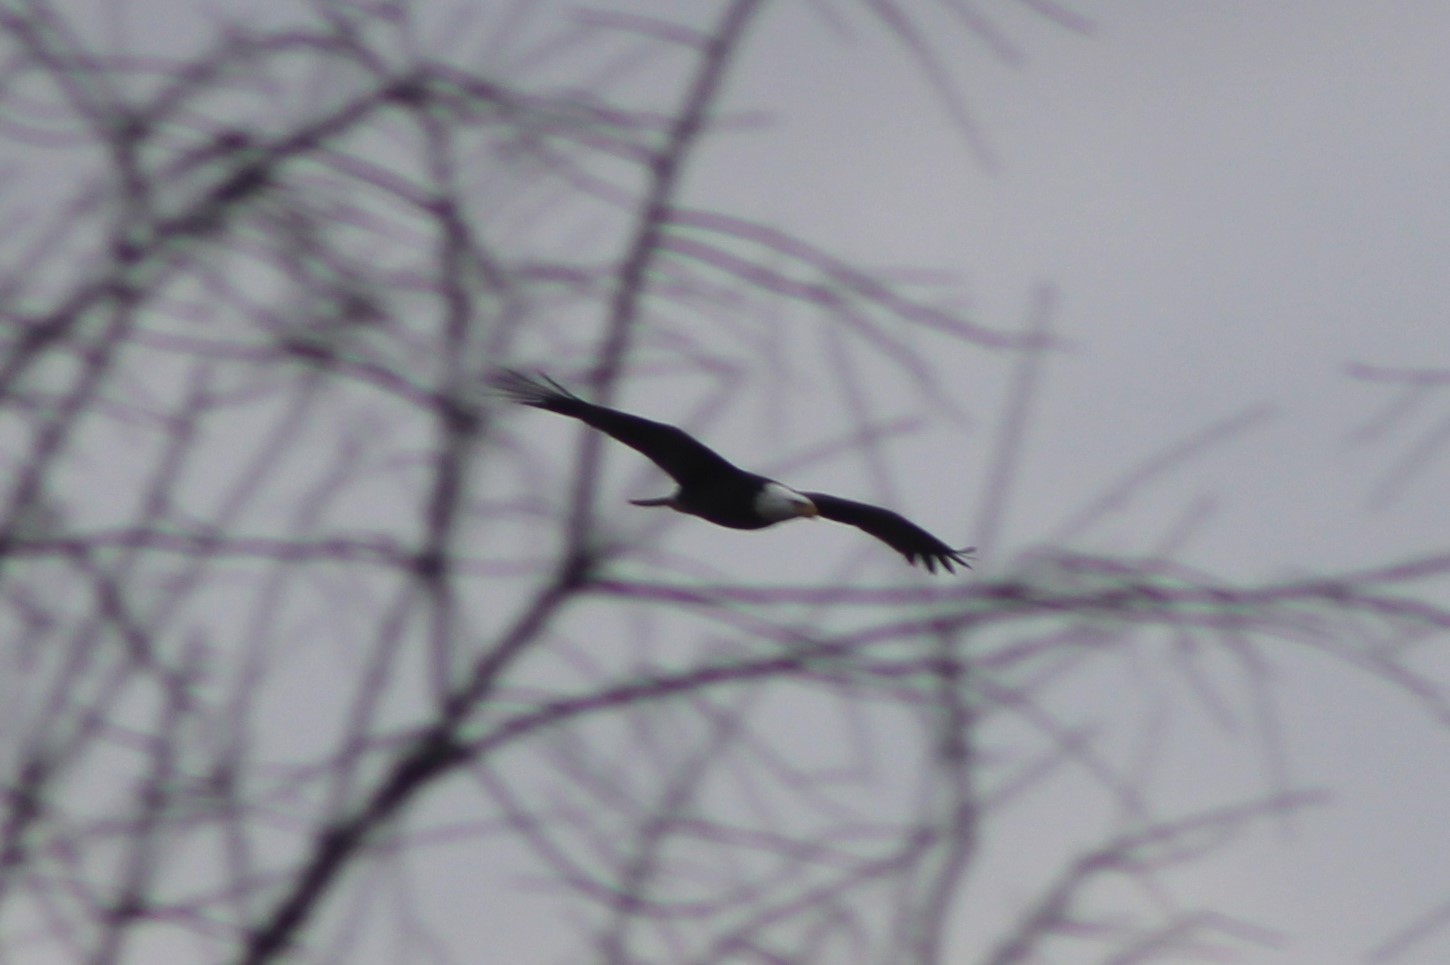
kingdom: Animalia
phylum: Chordata
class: Aves
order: Accipitriformes
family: Accipitridae
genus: Haliaeetus
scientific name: Haliaeetus leucocephalus
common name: Bald eagle
